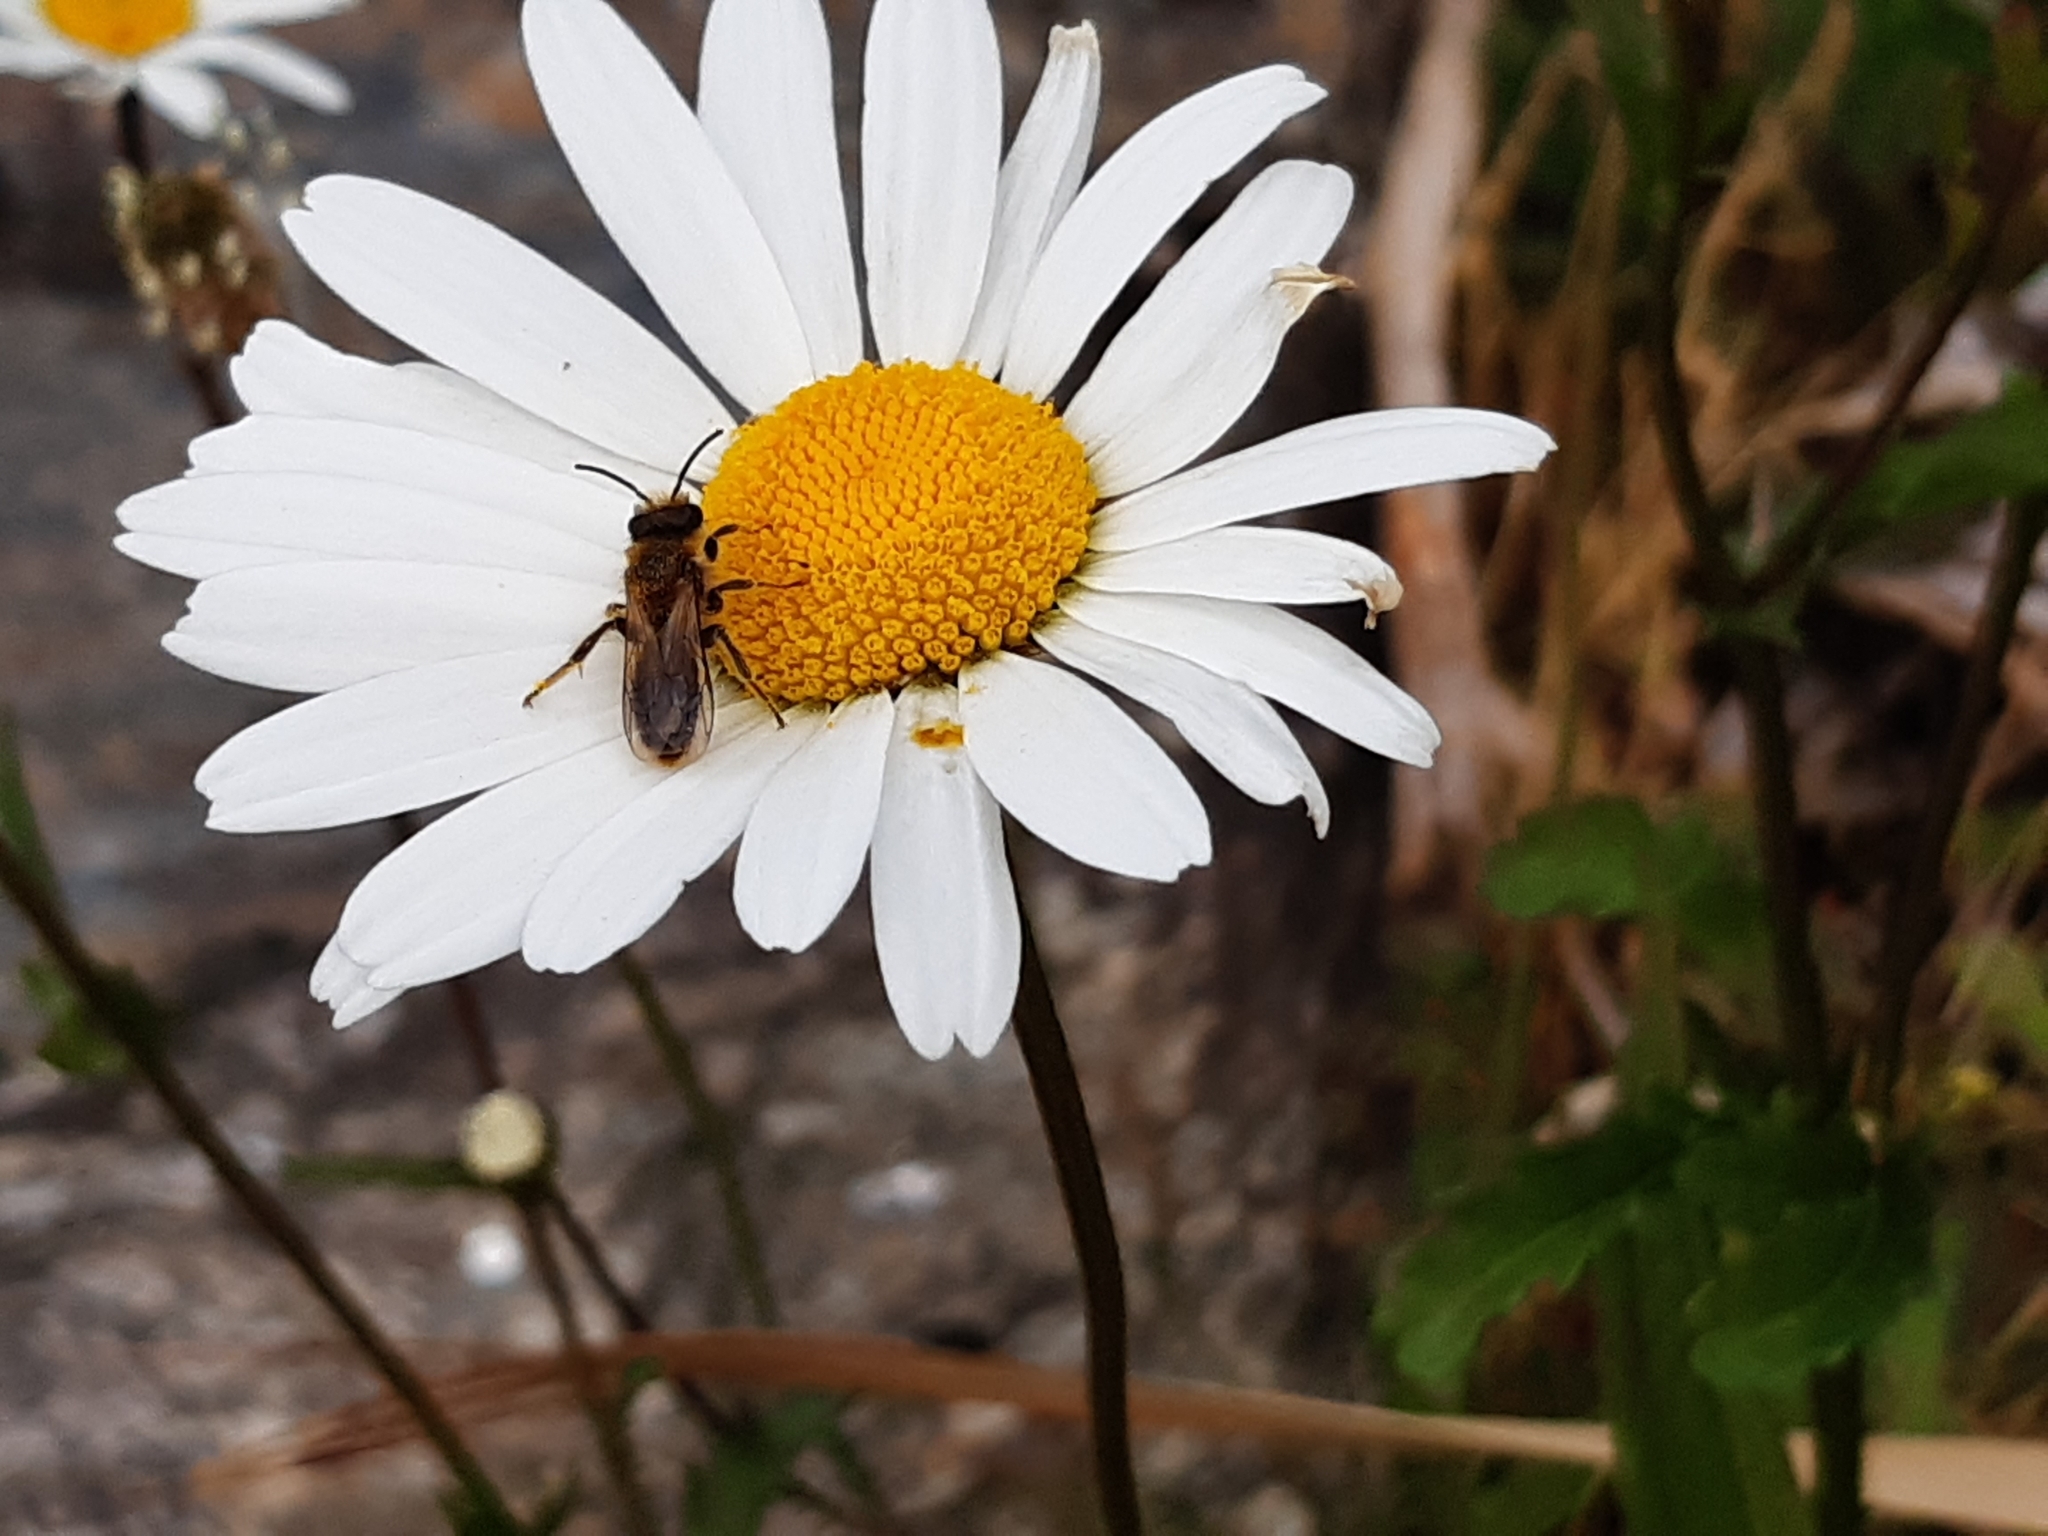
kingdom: Animalia
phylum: Arthropoda
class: Insecta
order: Hymenoptera
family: Colletidae
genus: Leioproctus
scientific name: Leioproctus fulvescens
